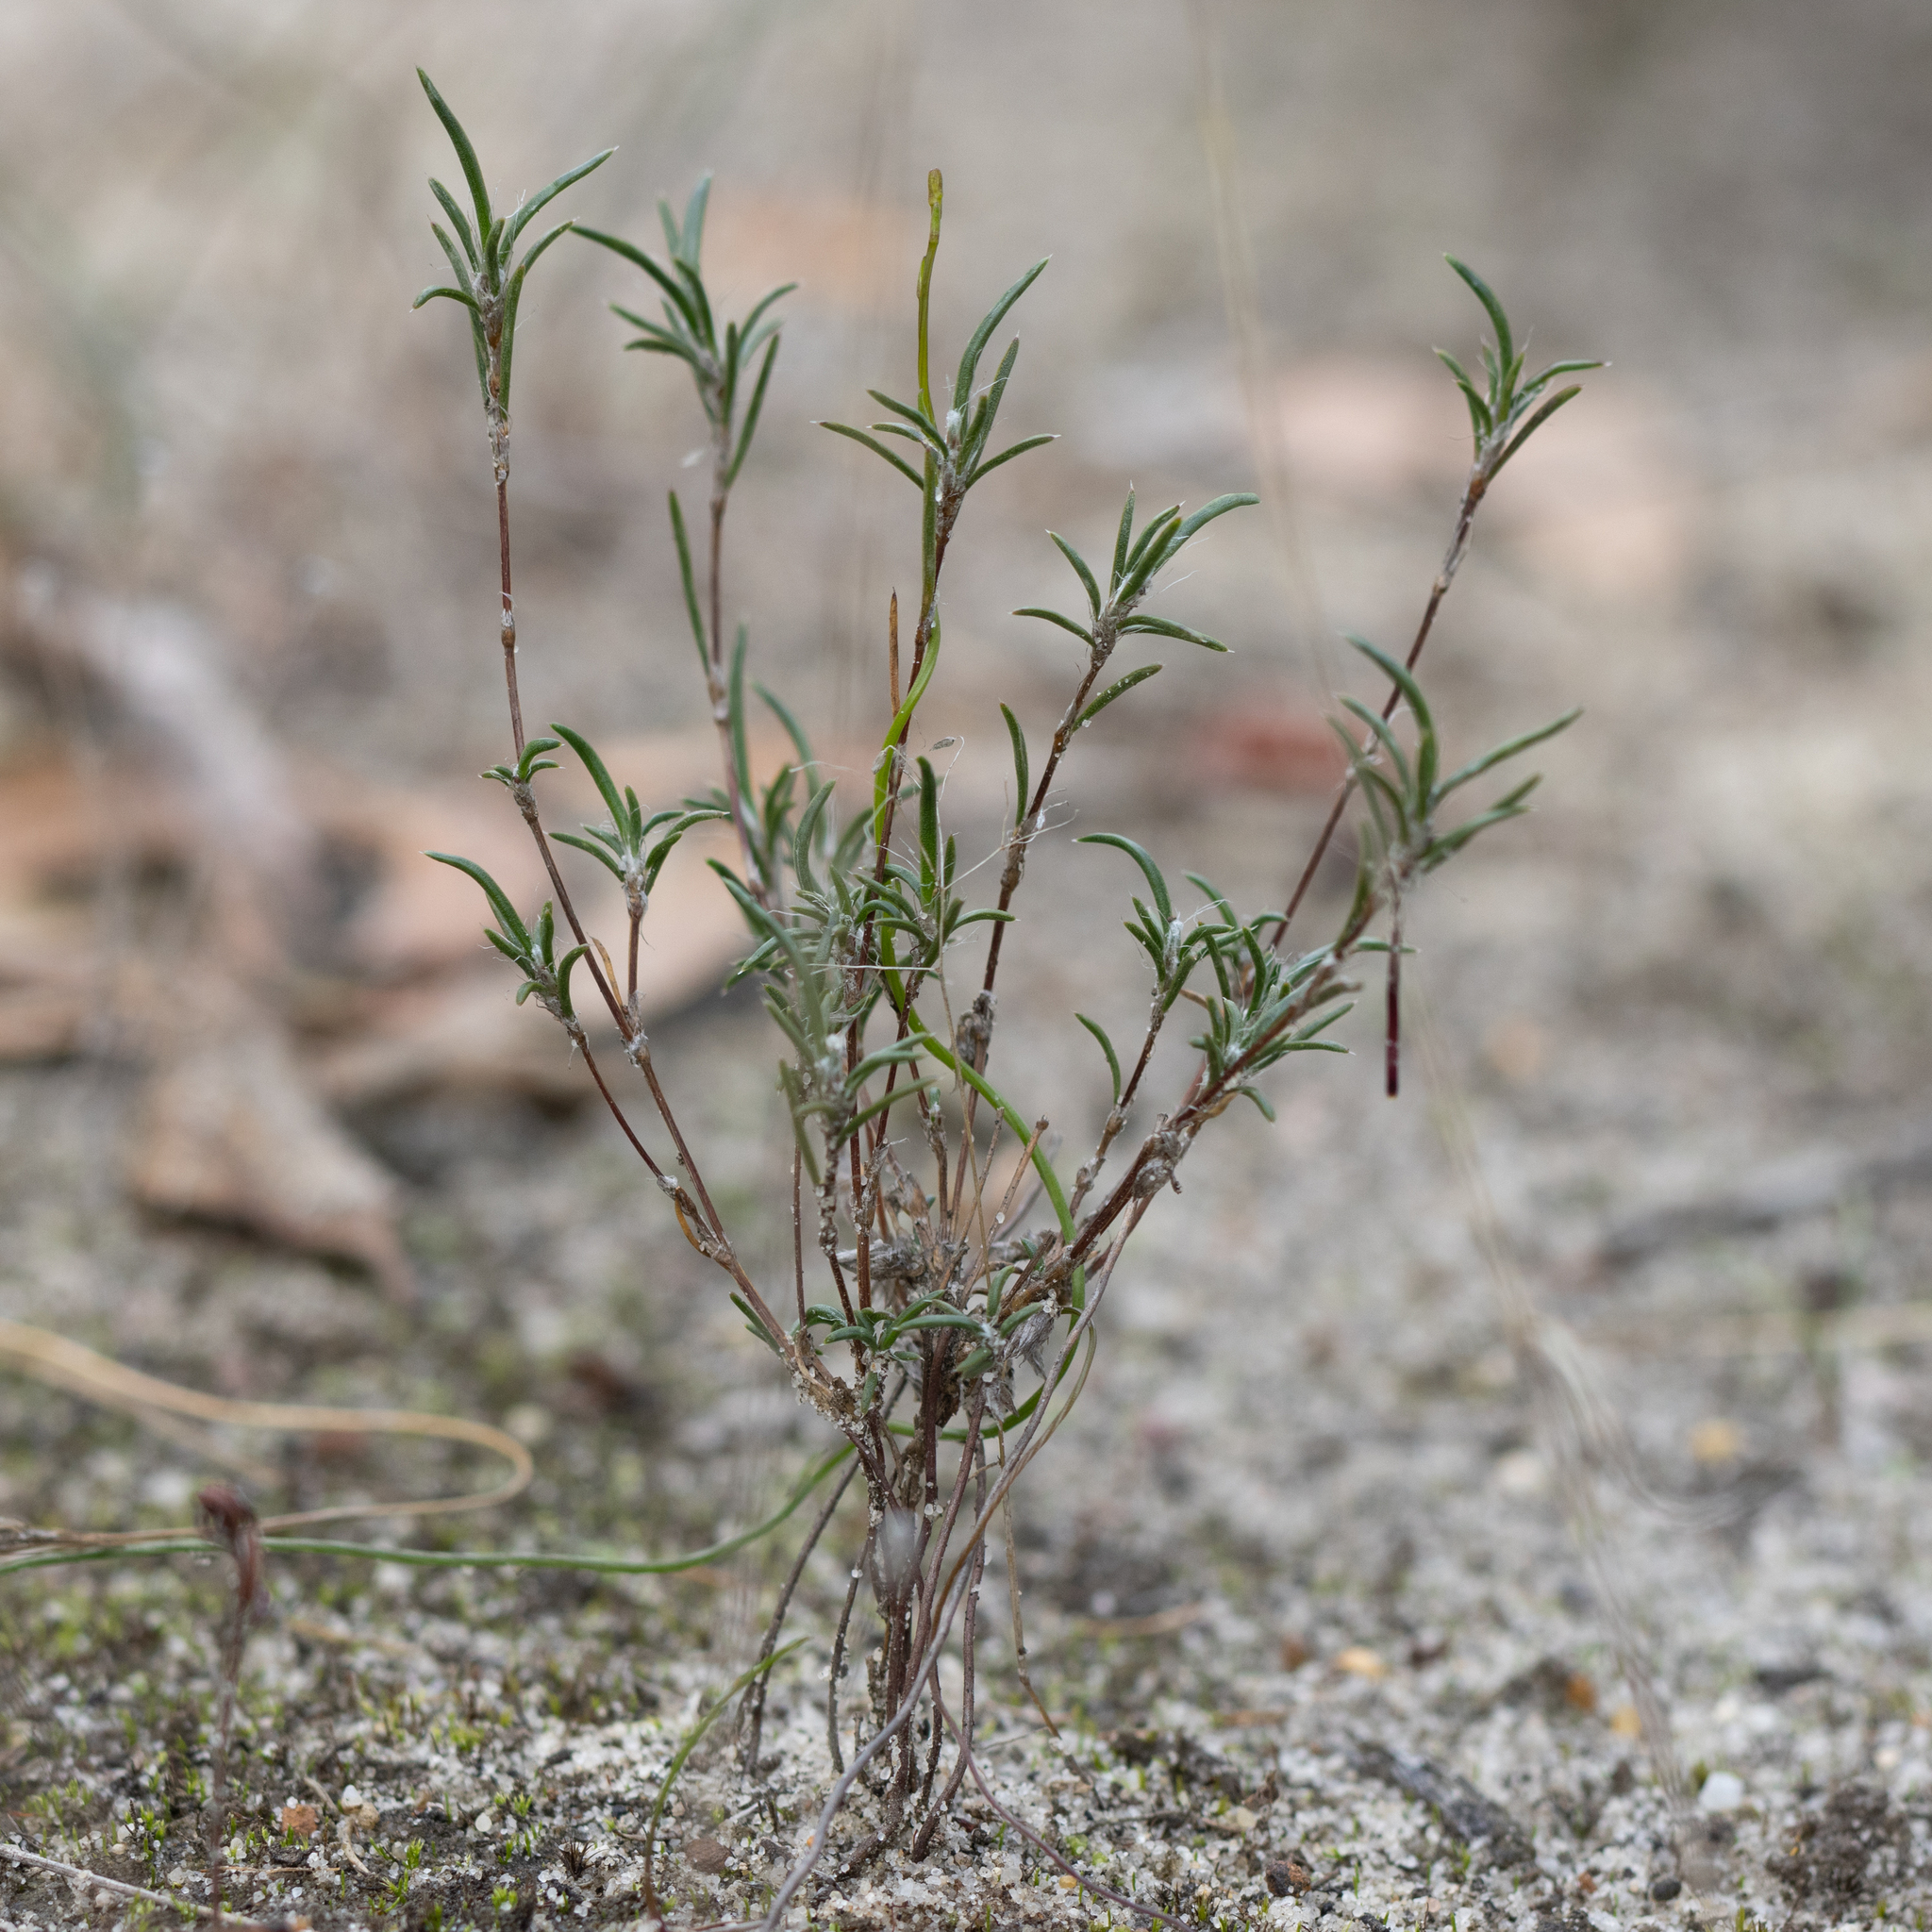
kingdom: Plantae
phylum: Tracheophyta
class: Liliopsida
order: Asparagales
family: Asparagaceae
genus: Laxmannia
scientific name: Laxmannia orientalis
